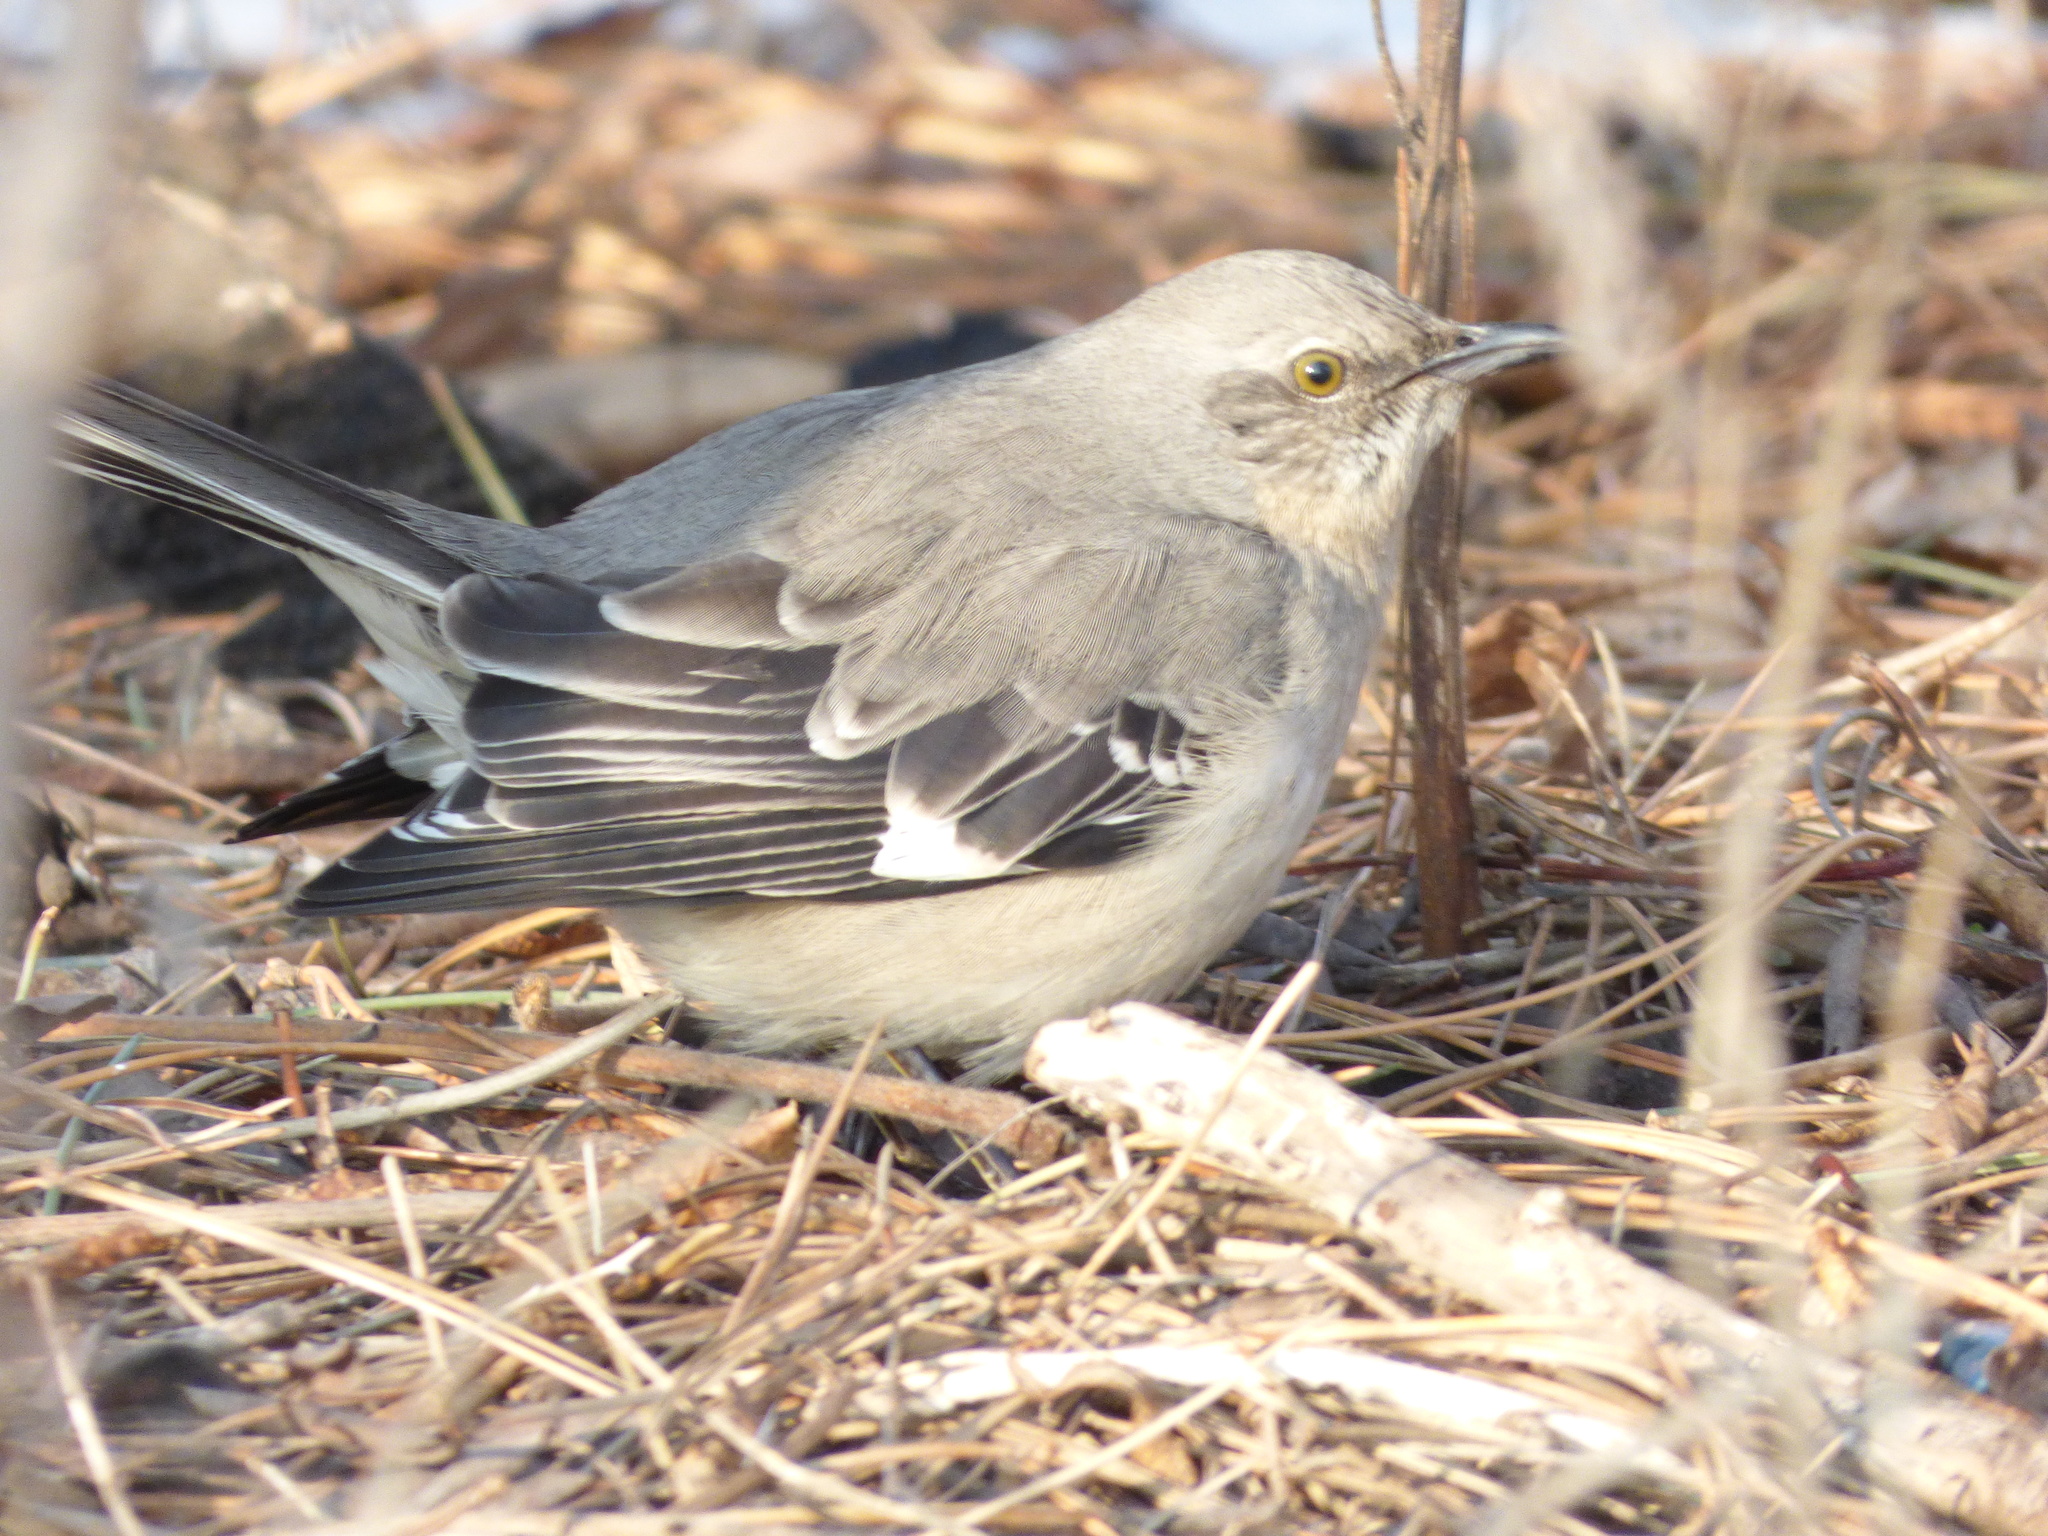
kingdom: Animalia
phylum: Chordata
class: Aves
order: Passeriformes
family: Mimidae
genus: Mimus
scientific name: Mimus polyglottos
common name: Northern mockingbird
